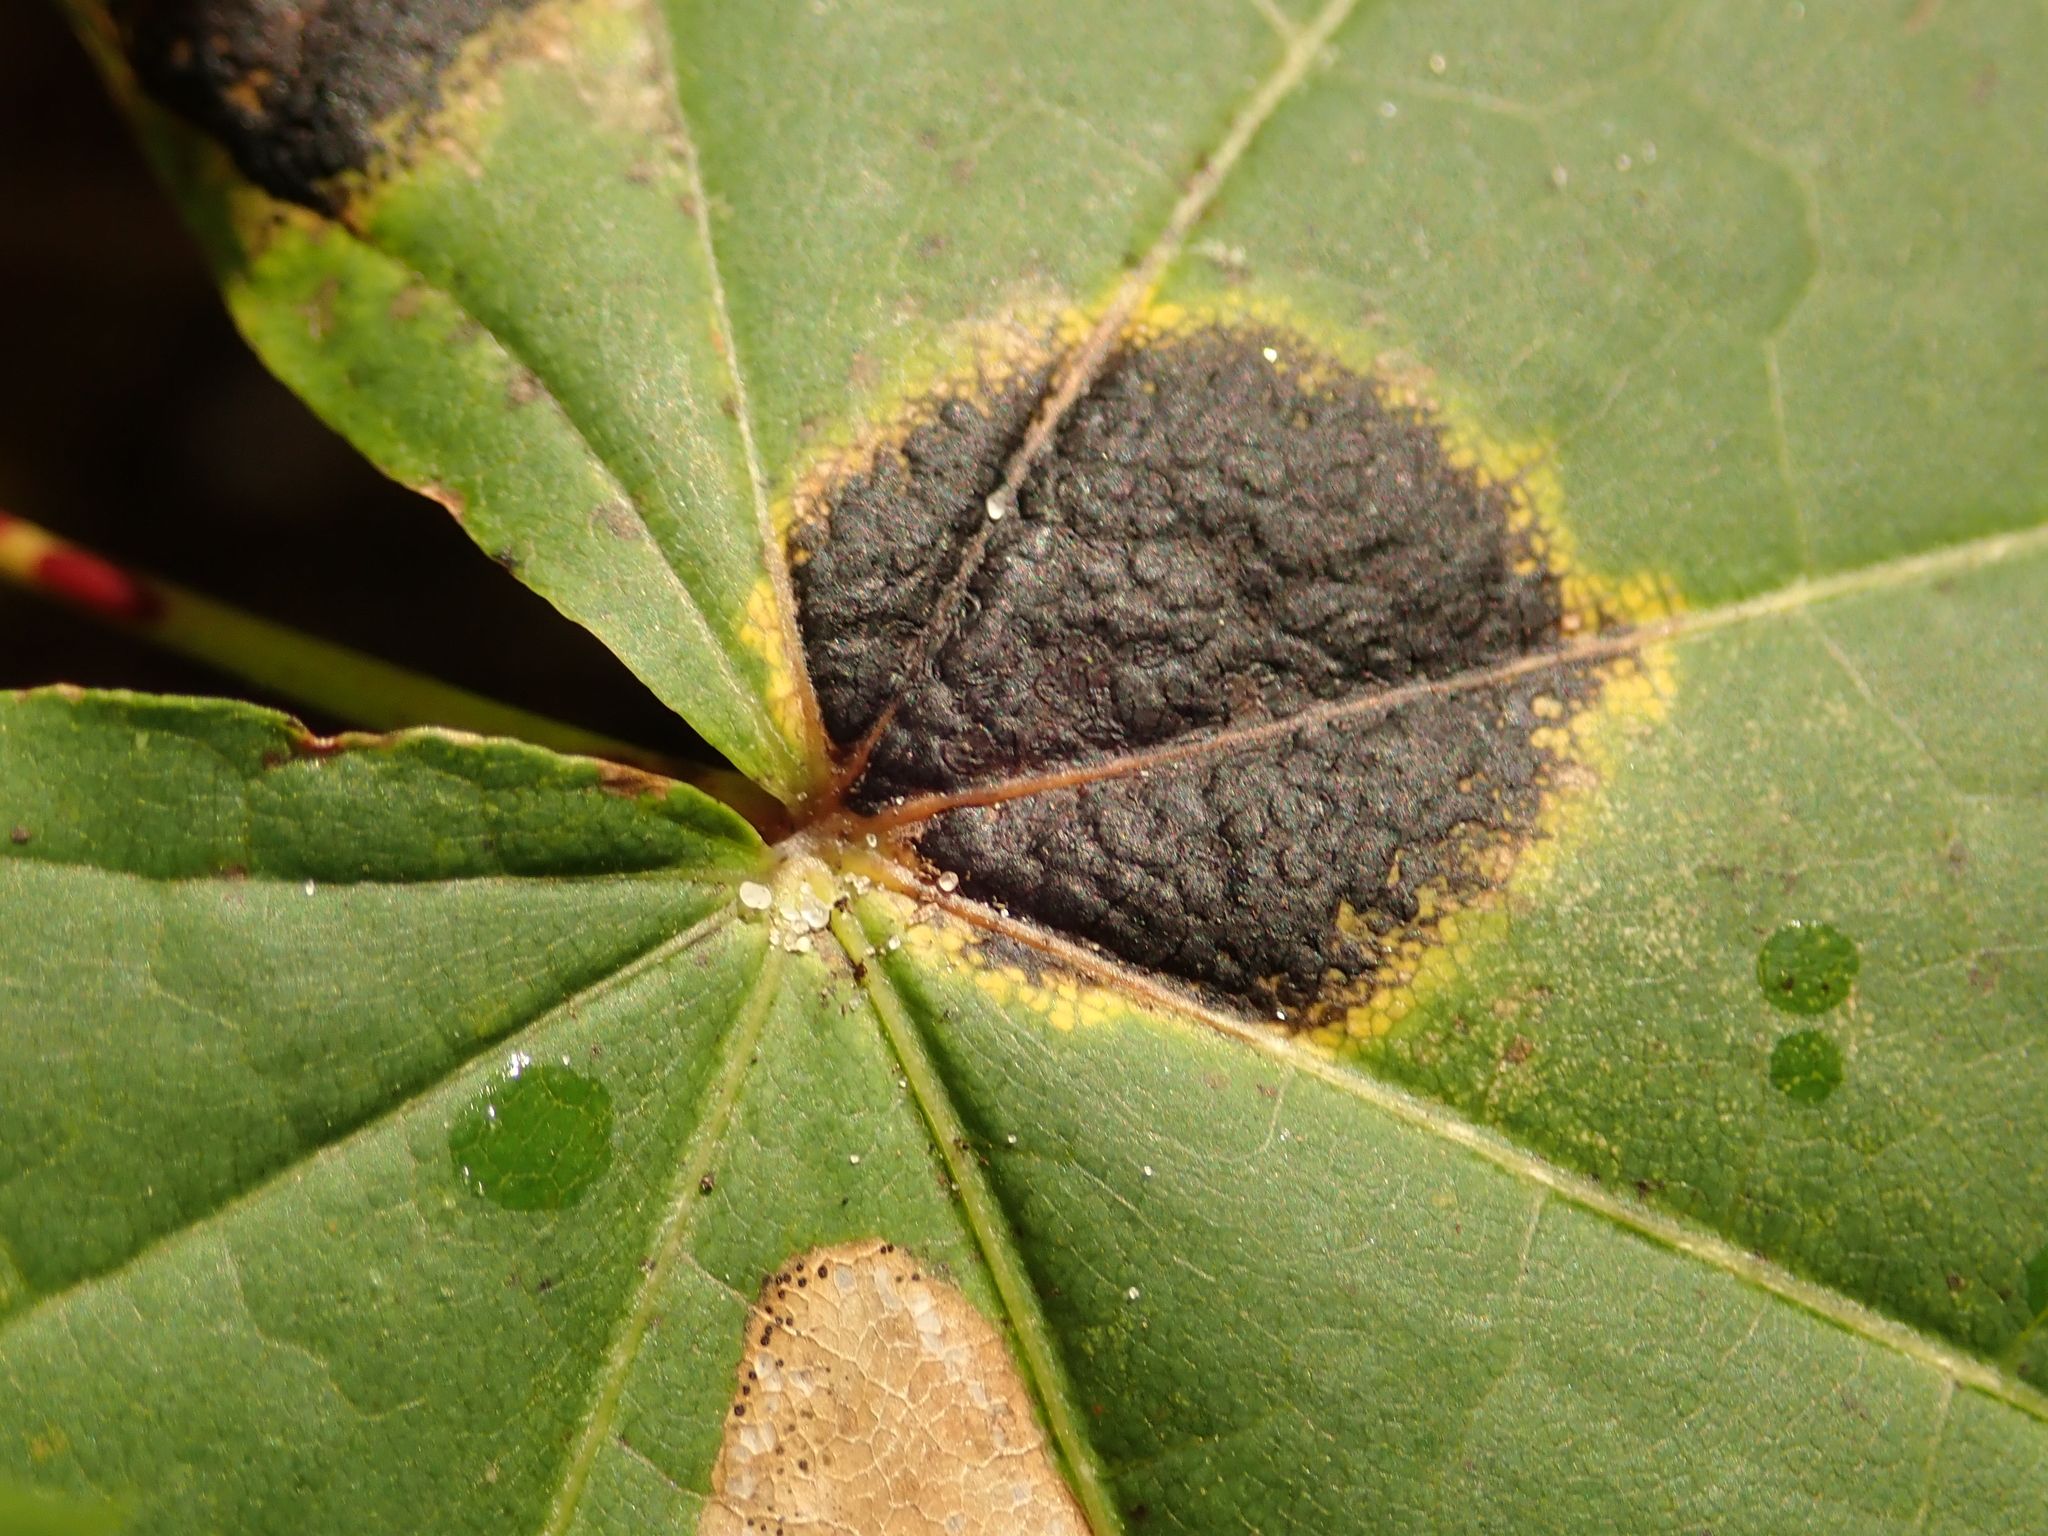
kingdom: Fungi
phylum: Ascomycota
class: Leotiomycetes
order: Rhytismatales
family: Rhytismataceae
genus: Rhytisma
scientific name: Rhytisma acerinum
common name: European tar spot
